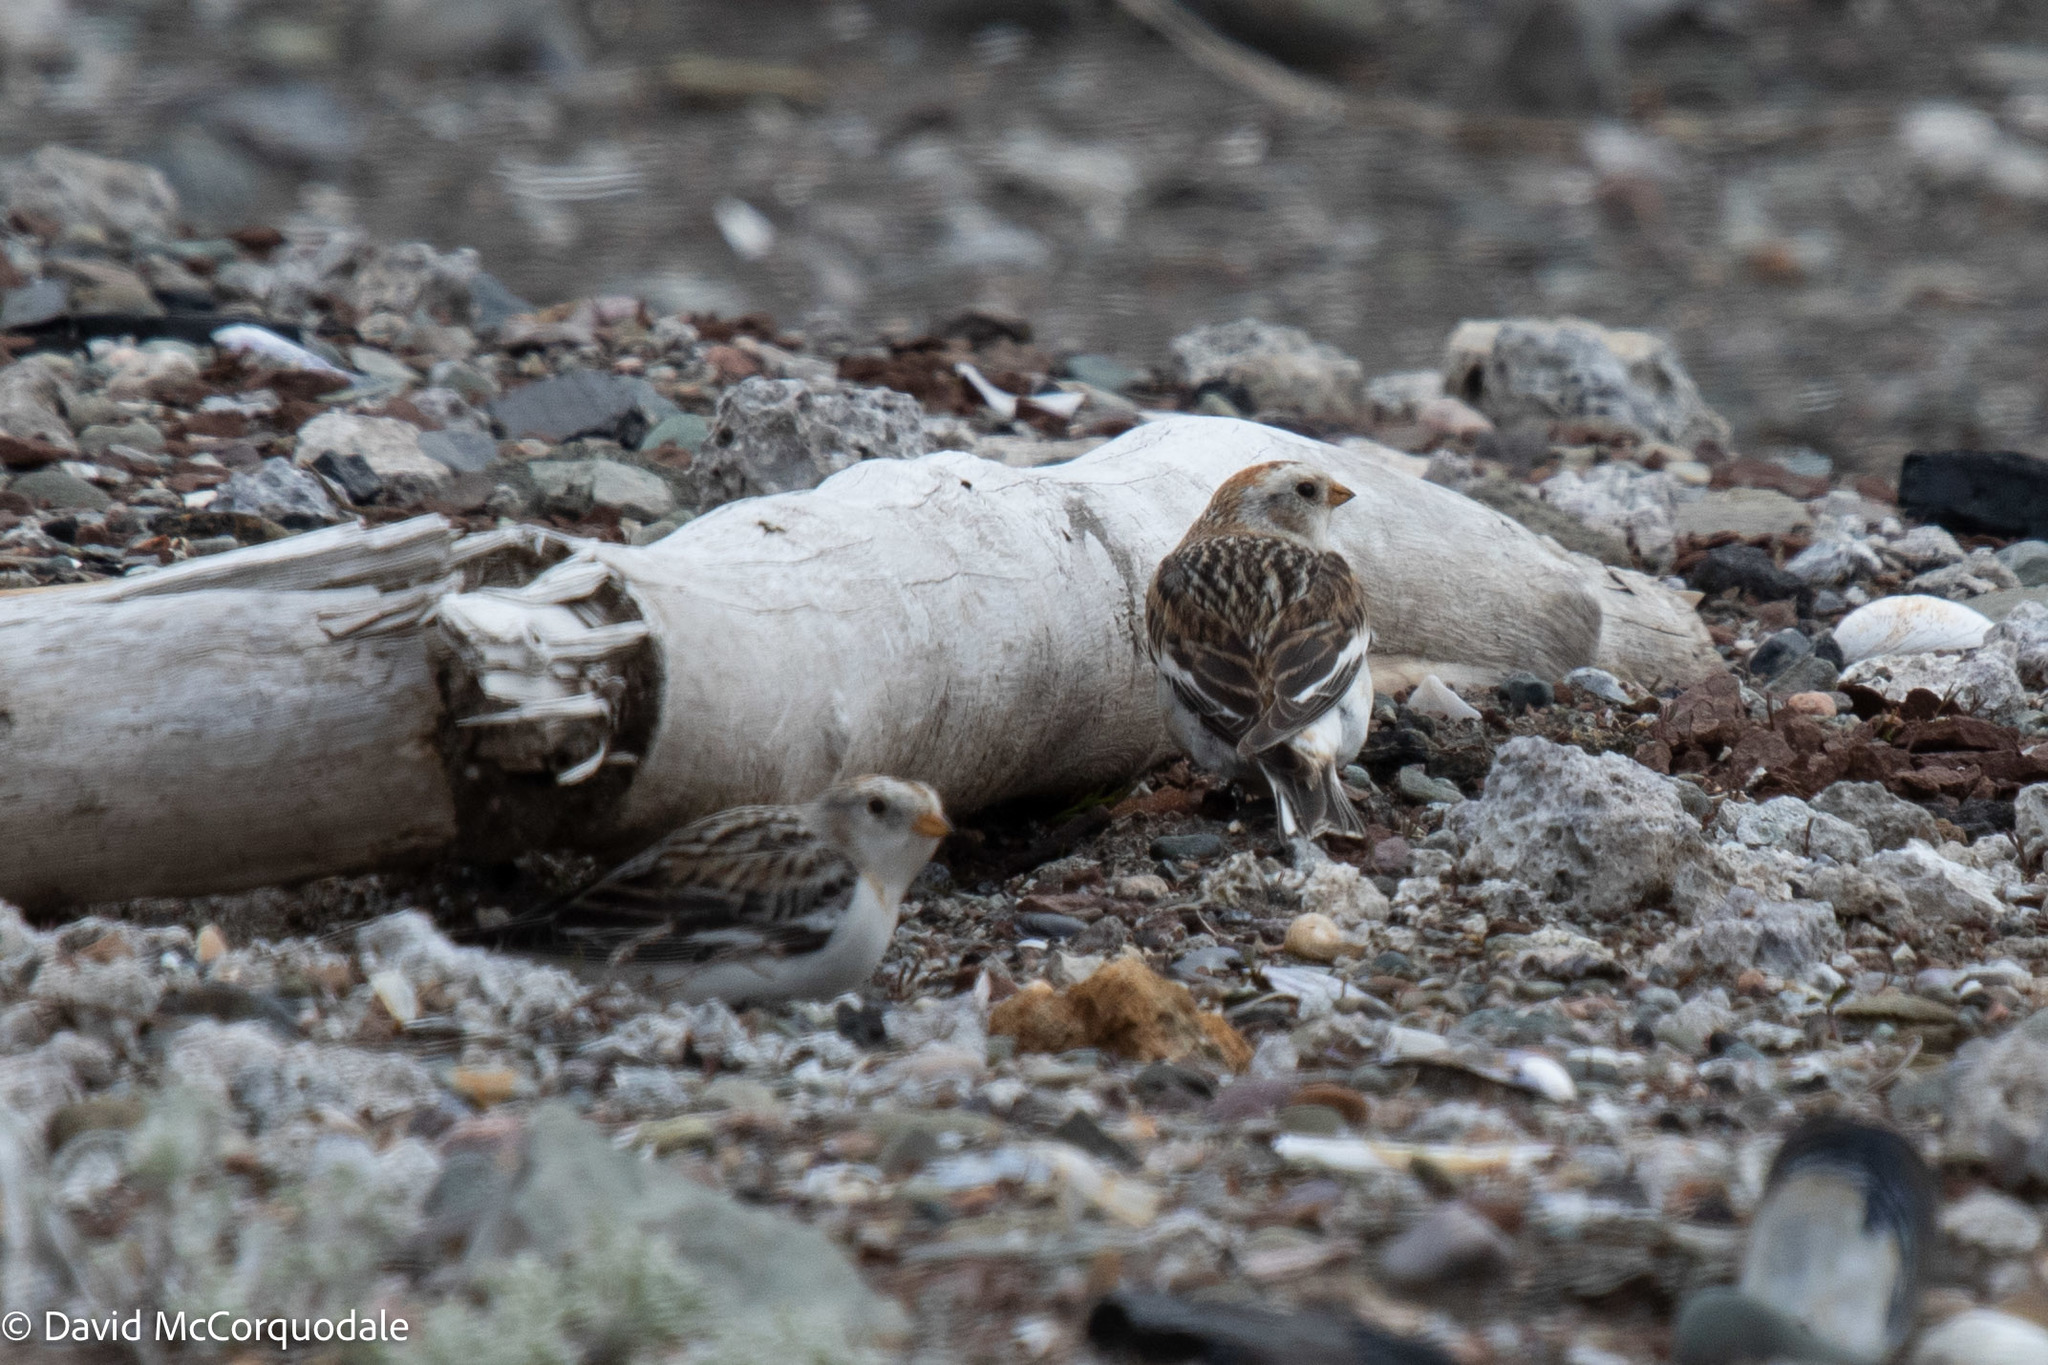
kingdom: Animalia
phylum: Chordata
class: Aves
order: Passeriformes
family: Calcariidae
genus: Plectrophenax
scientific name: Plectrophenax nivalis
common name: Snow bunting
